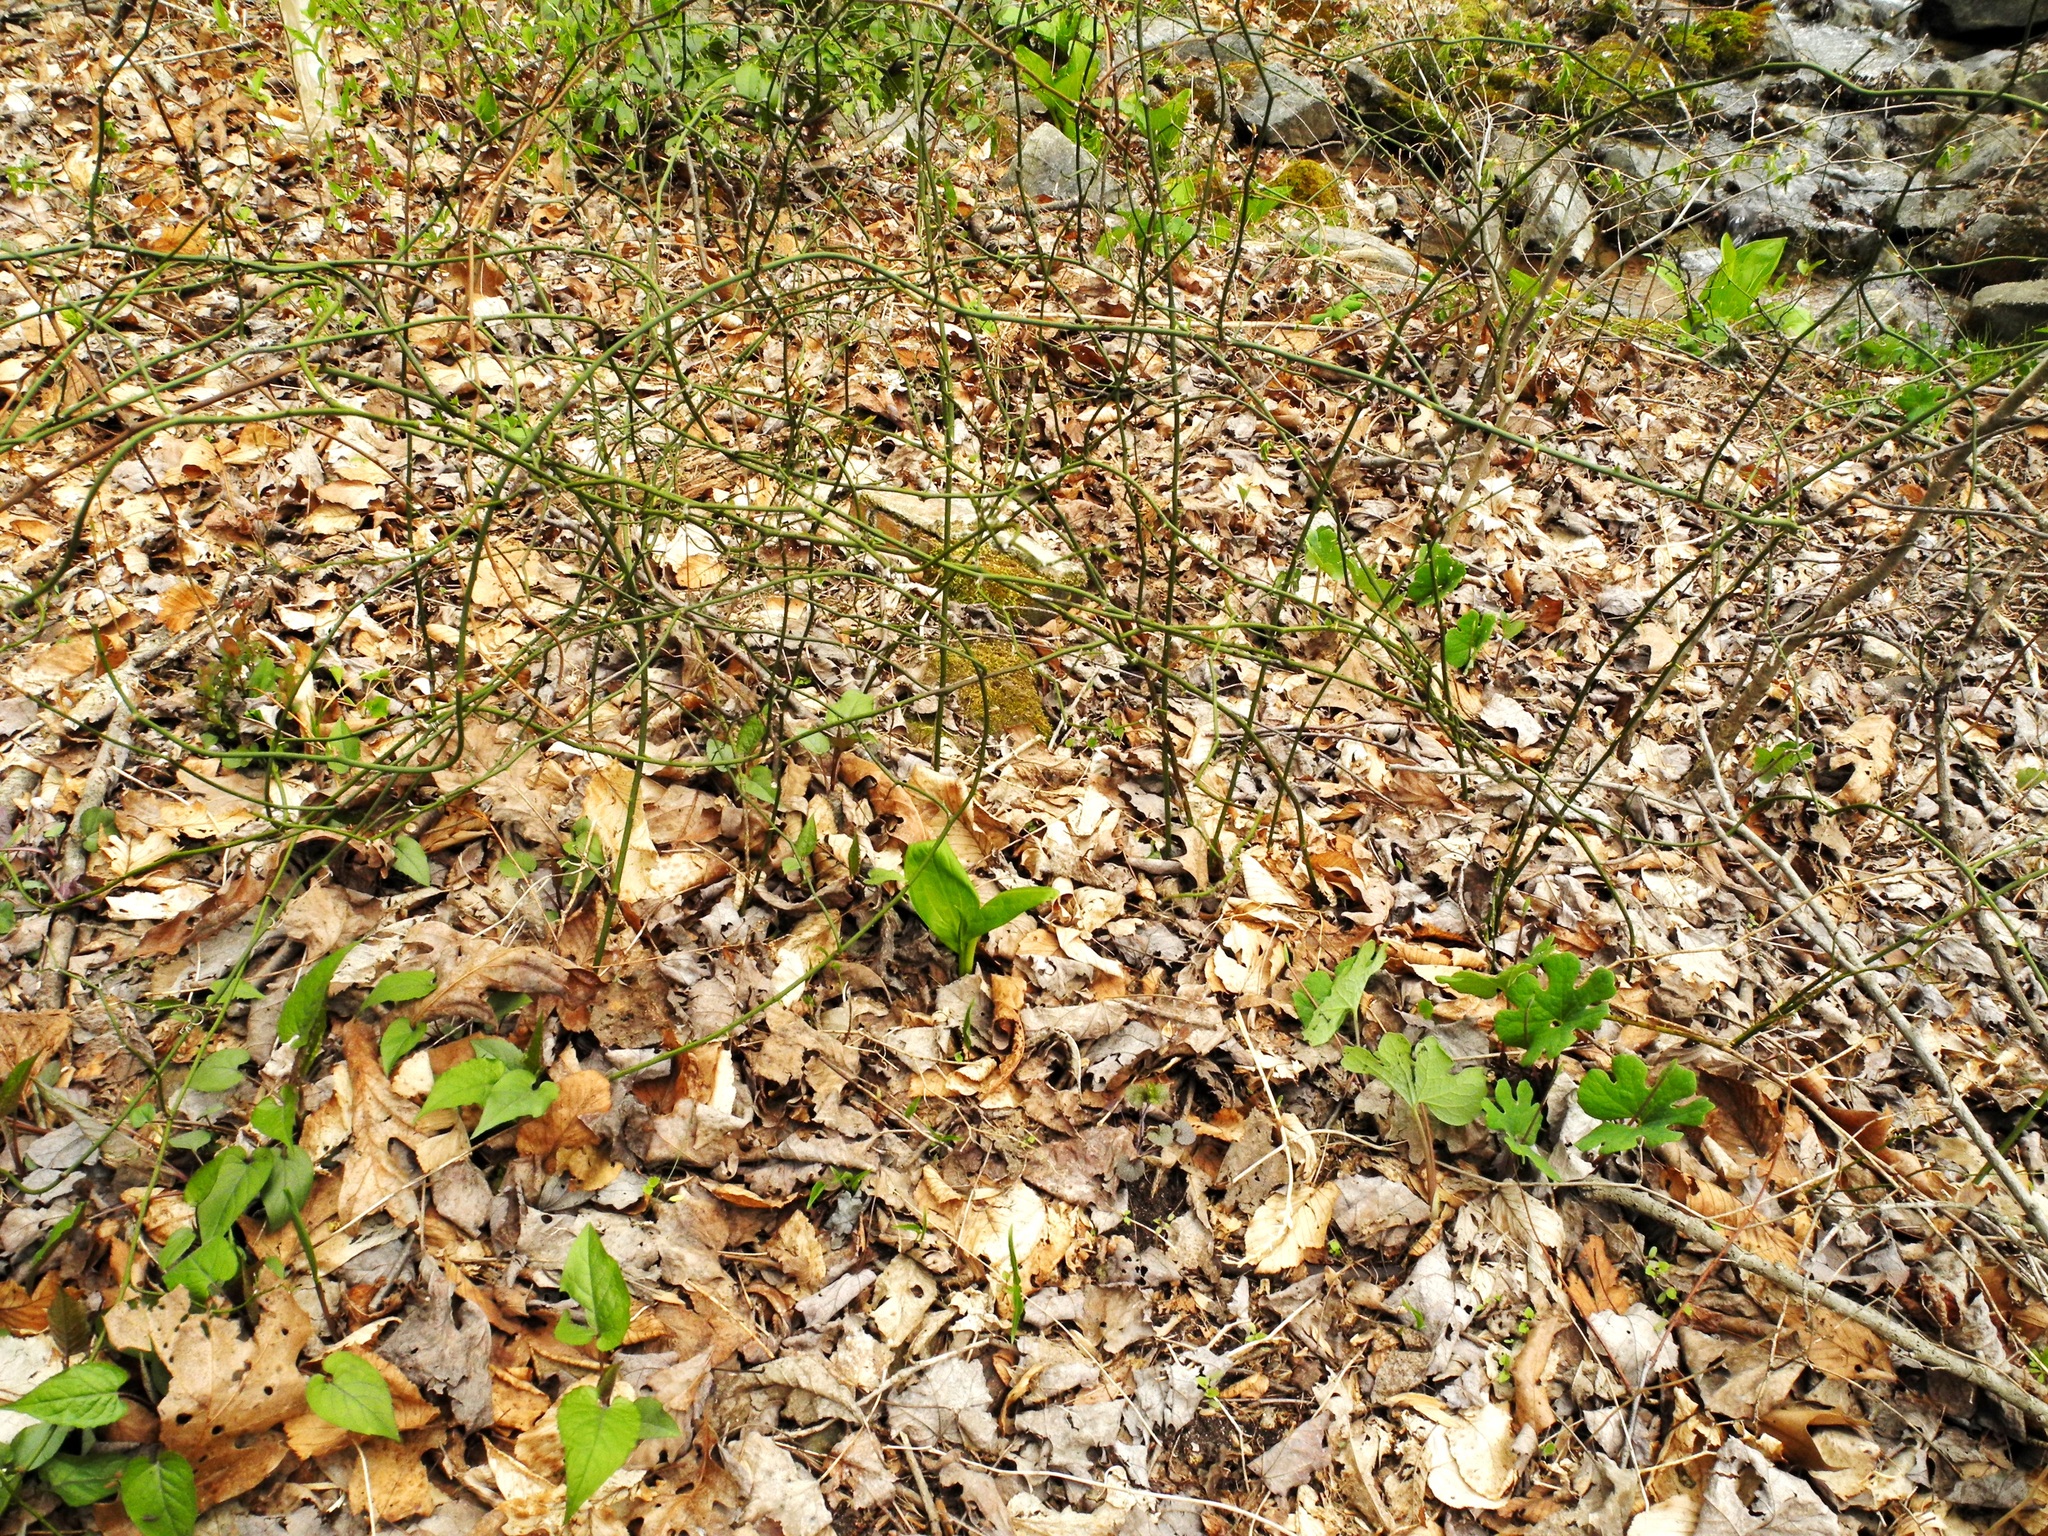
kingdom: Plantae
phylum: Tracheophyta
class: Liliopsida
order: Liliales
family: Smilacaceae
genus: Smilax
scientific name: Smilax rotundifolia
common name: Bullbriar
